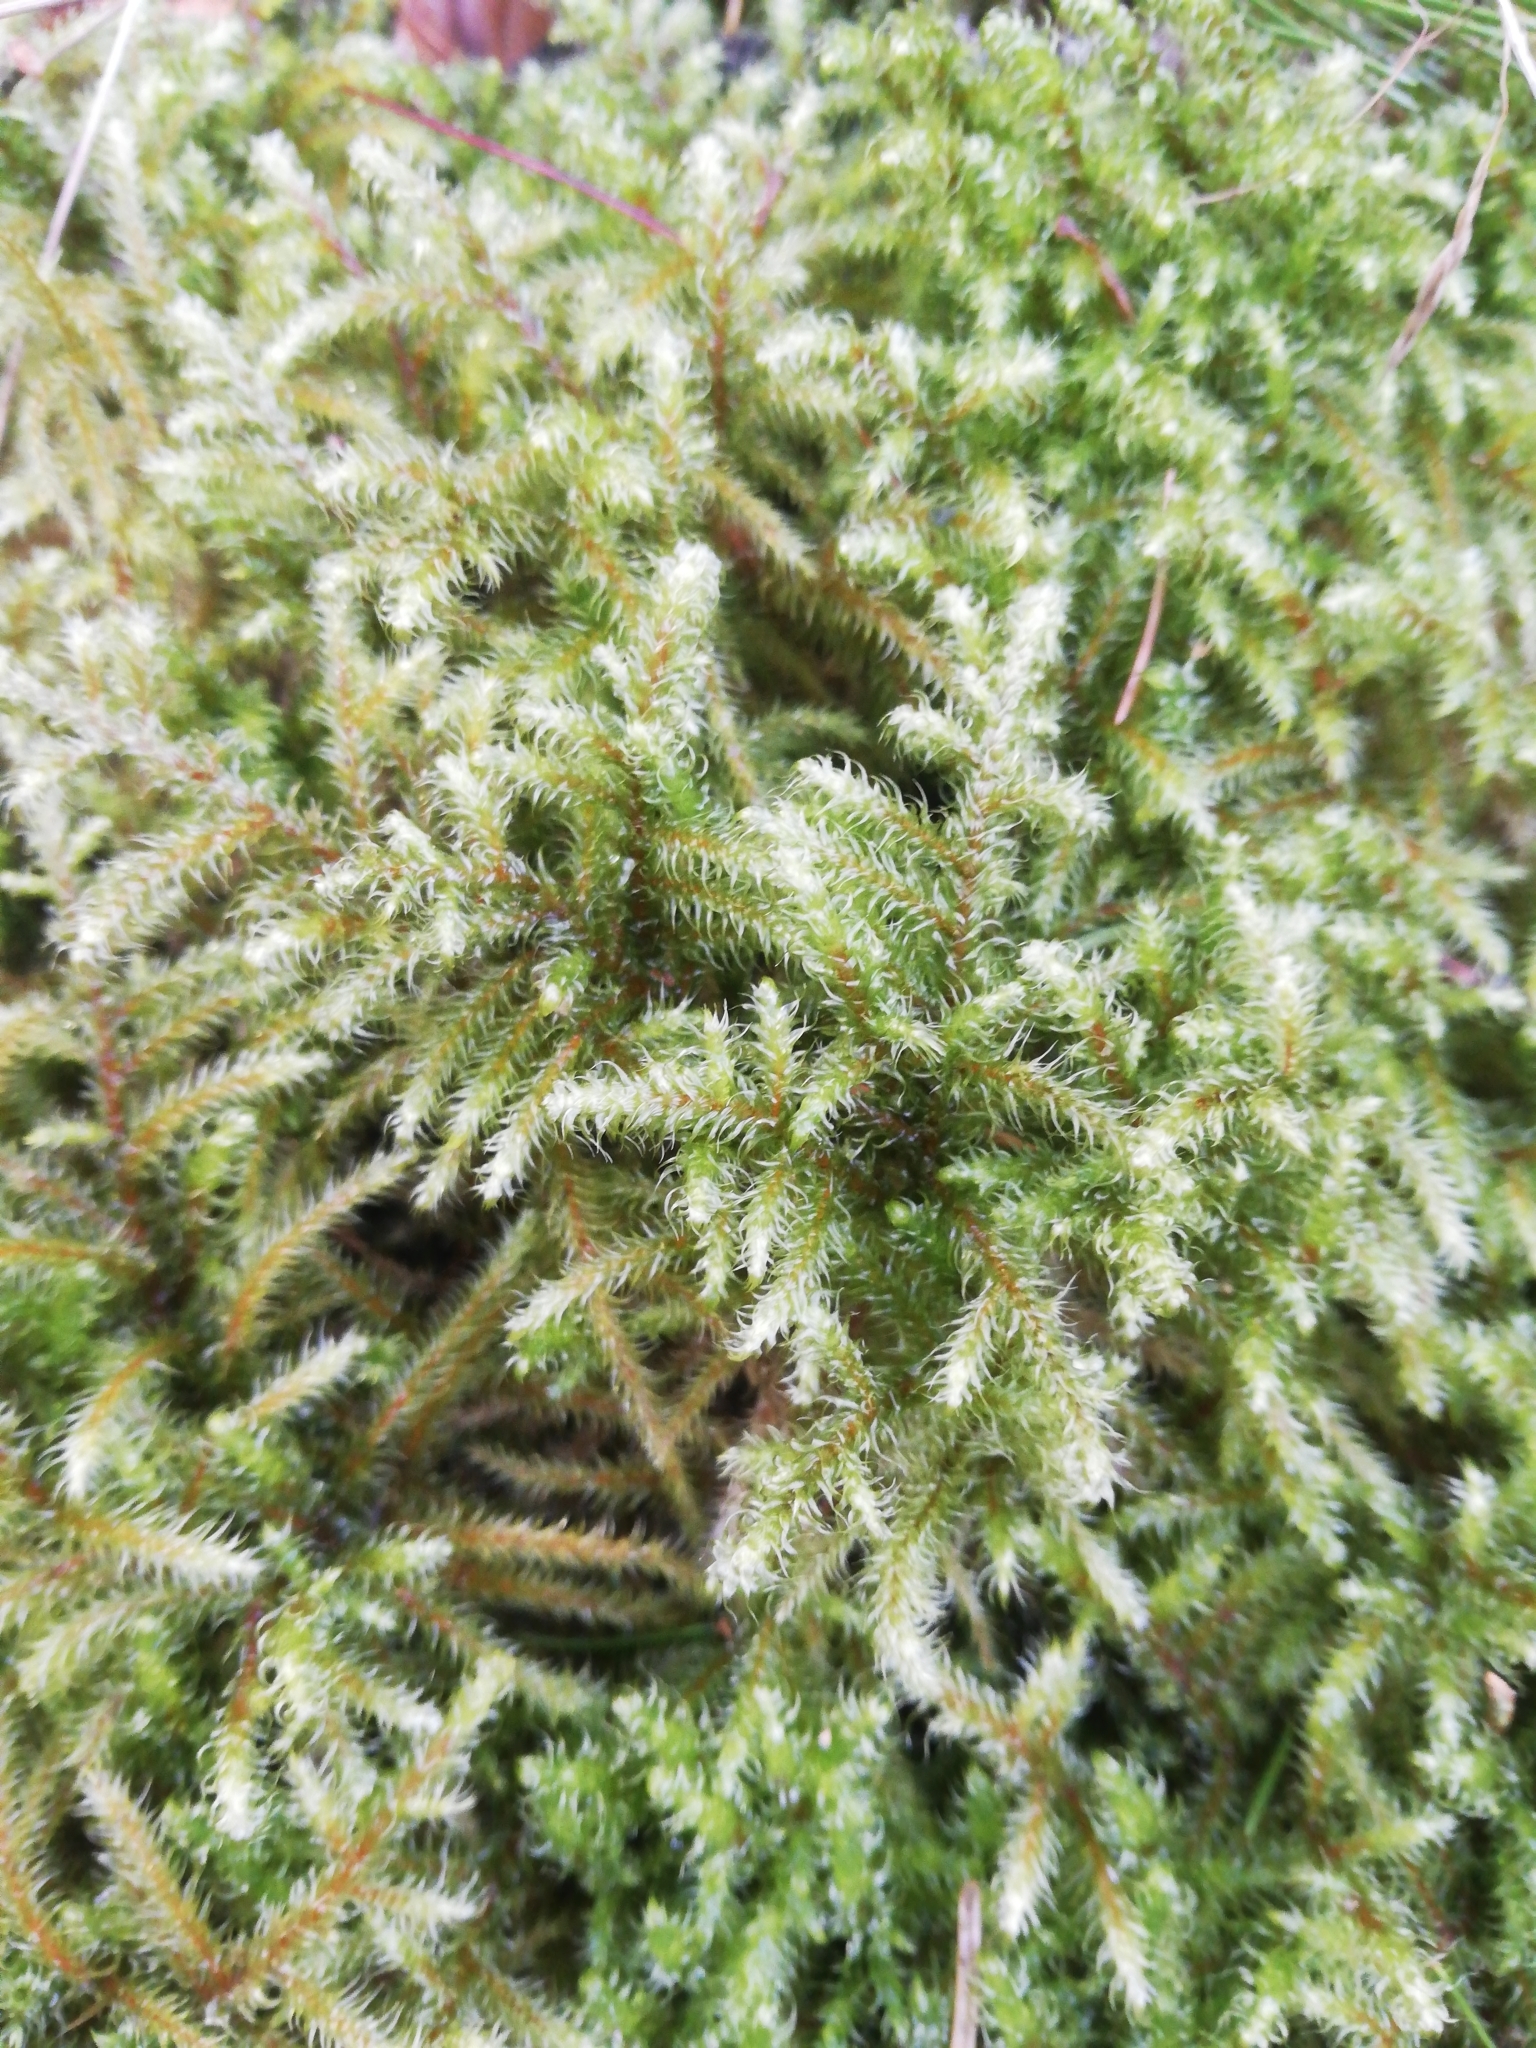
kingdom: Plantae
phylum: Bryophyta
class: Bryopsida
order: Hypnales
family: Hylocomiaceae
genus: Rhytidiadelphus
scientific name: Rhytidiadelphus loreus
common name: Lanky moss
